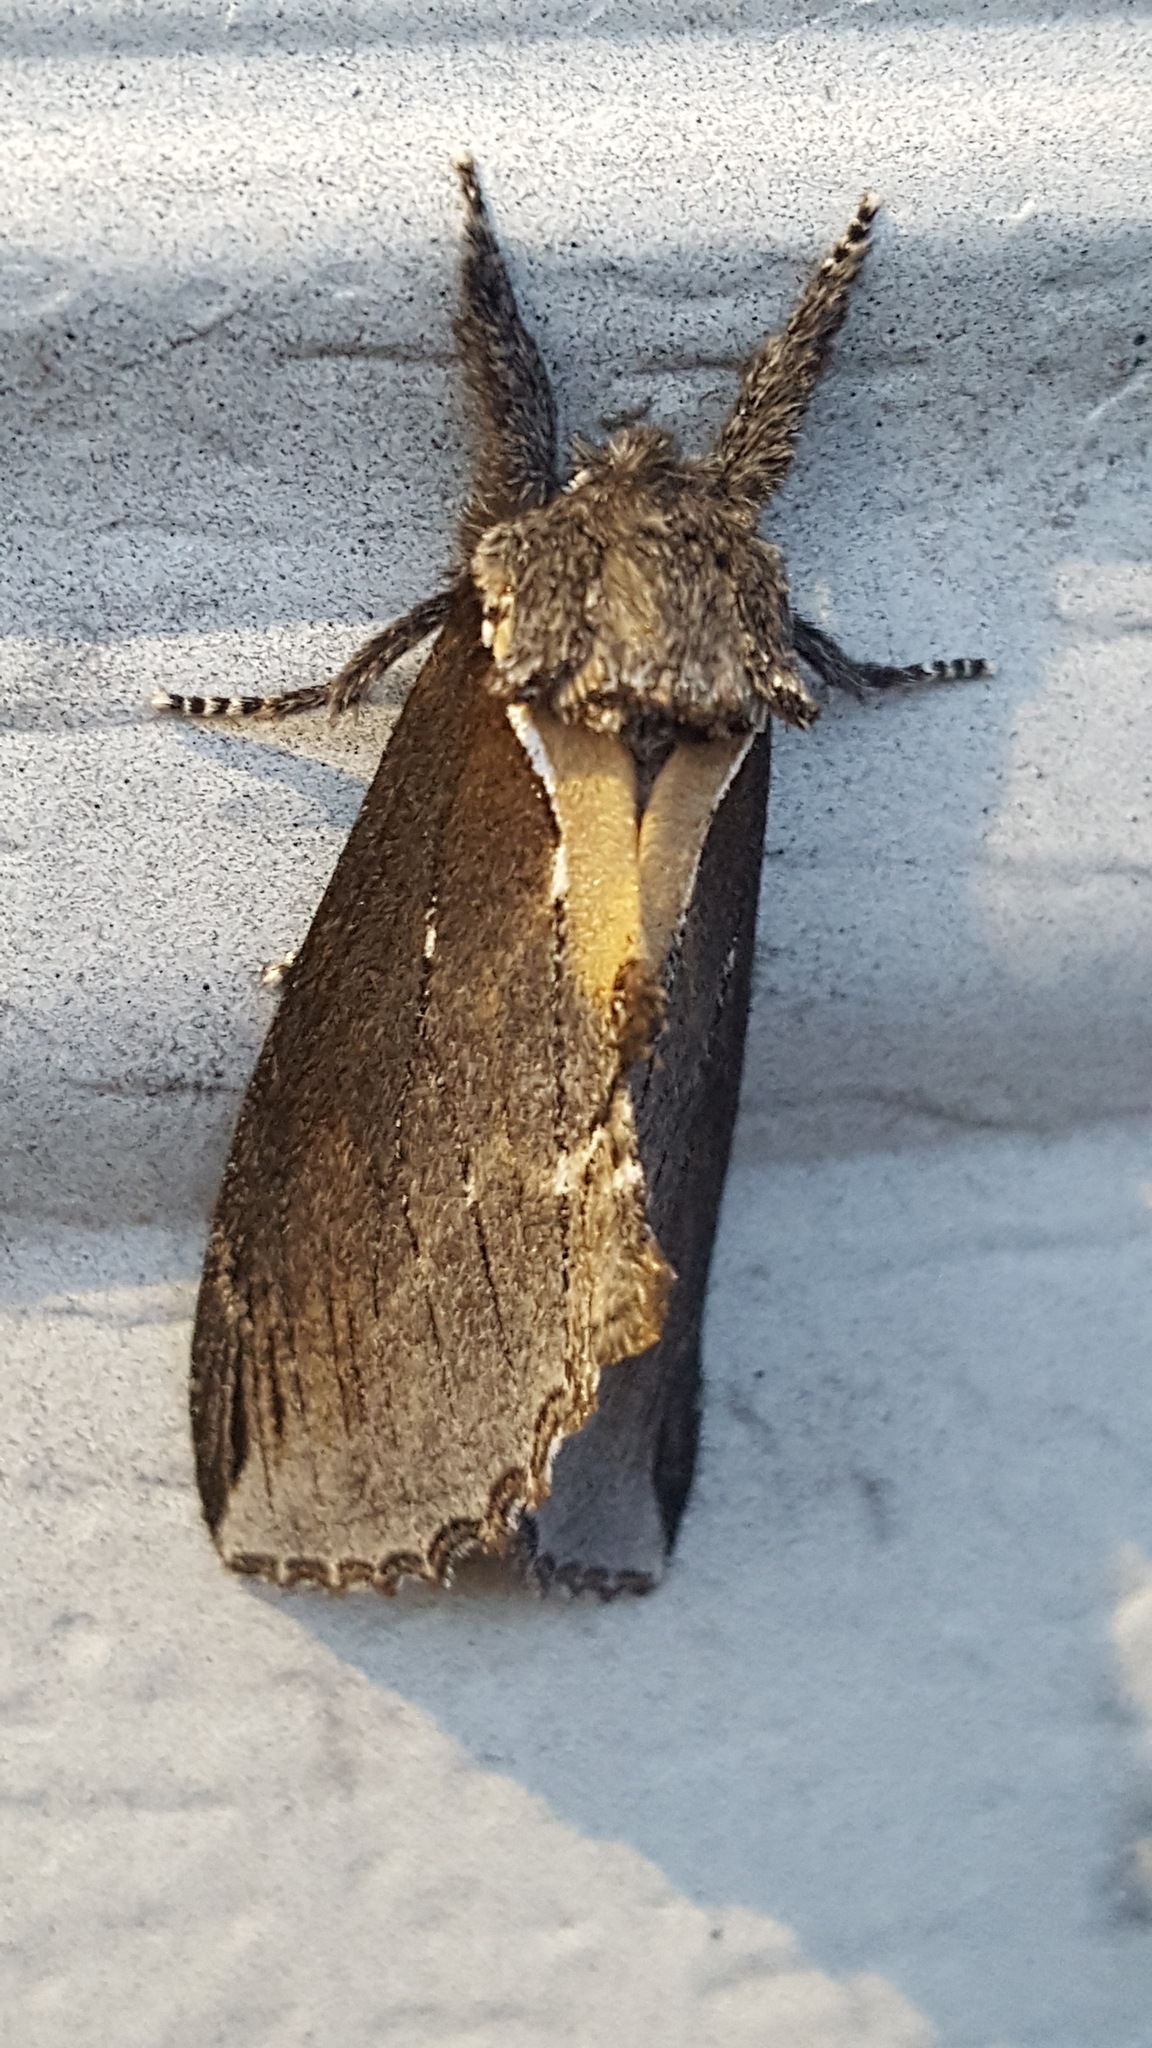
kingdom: Animalia
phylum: Arthropoda
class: Insecta
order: Lepidoptera
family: Notodontidae
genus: Pheosidea
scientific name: Pheosidea elegans
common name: Elegant prominent
